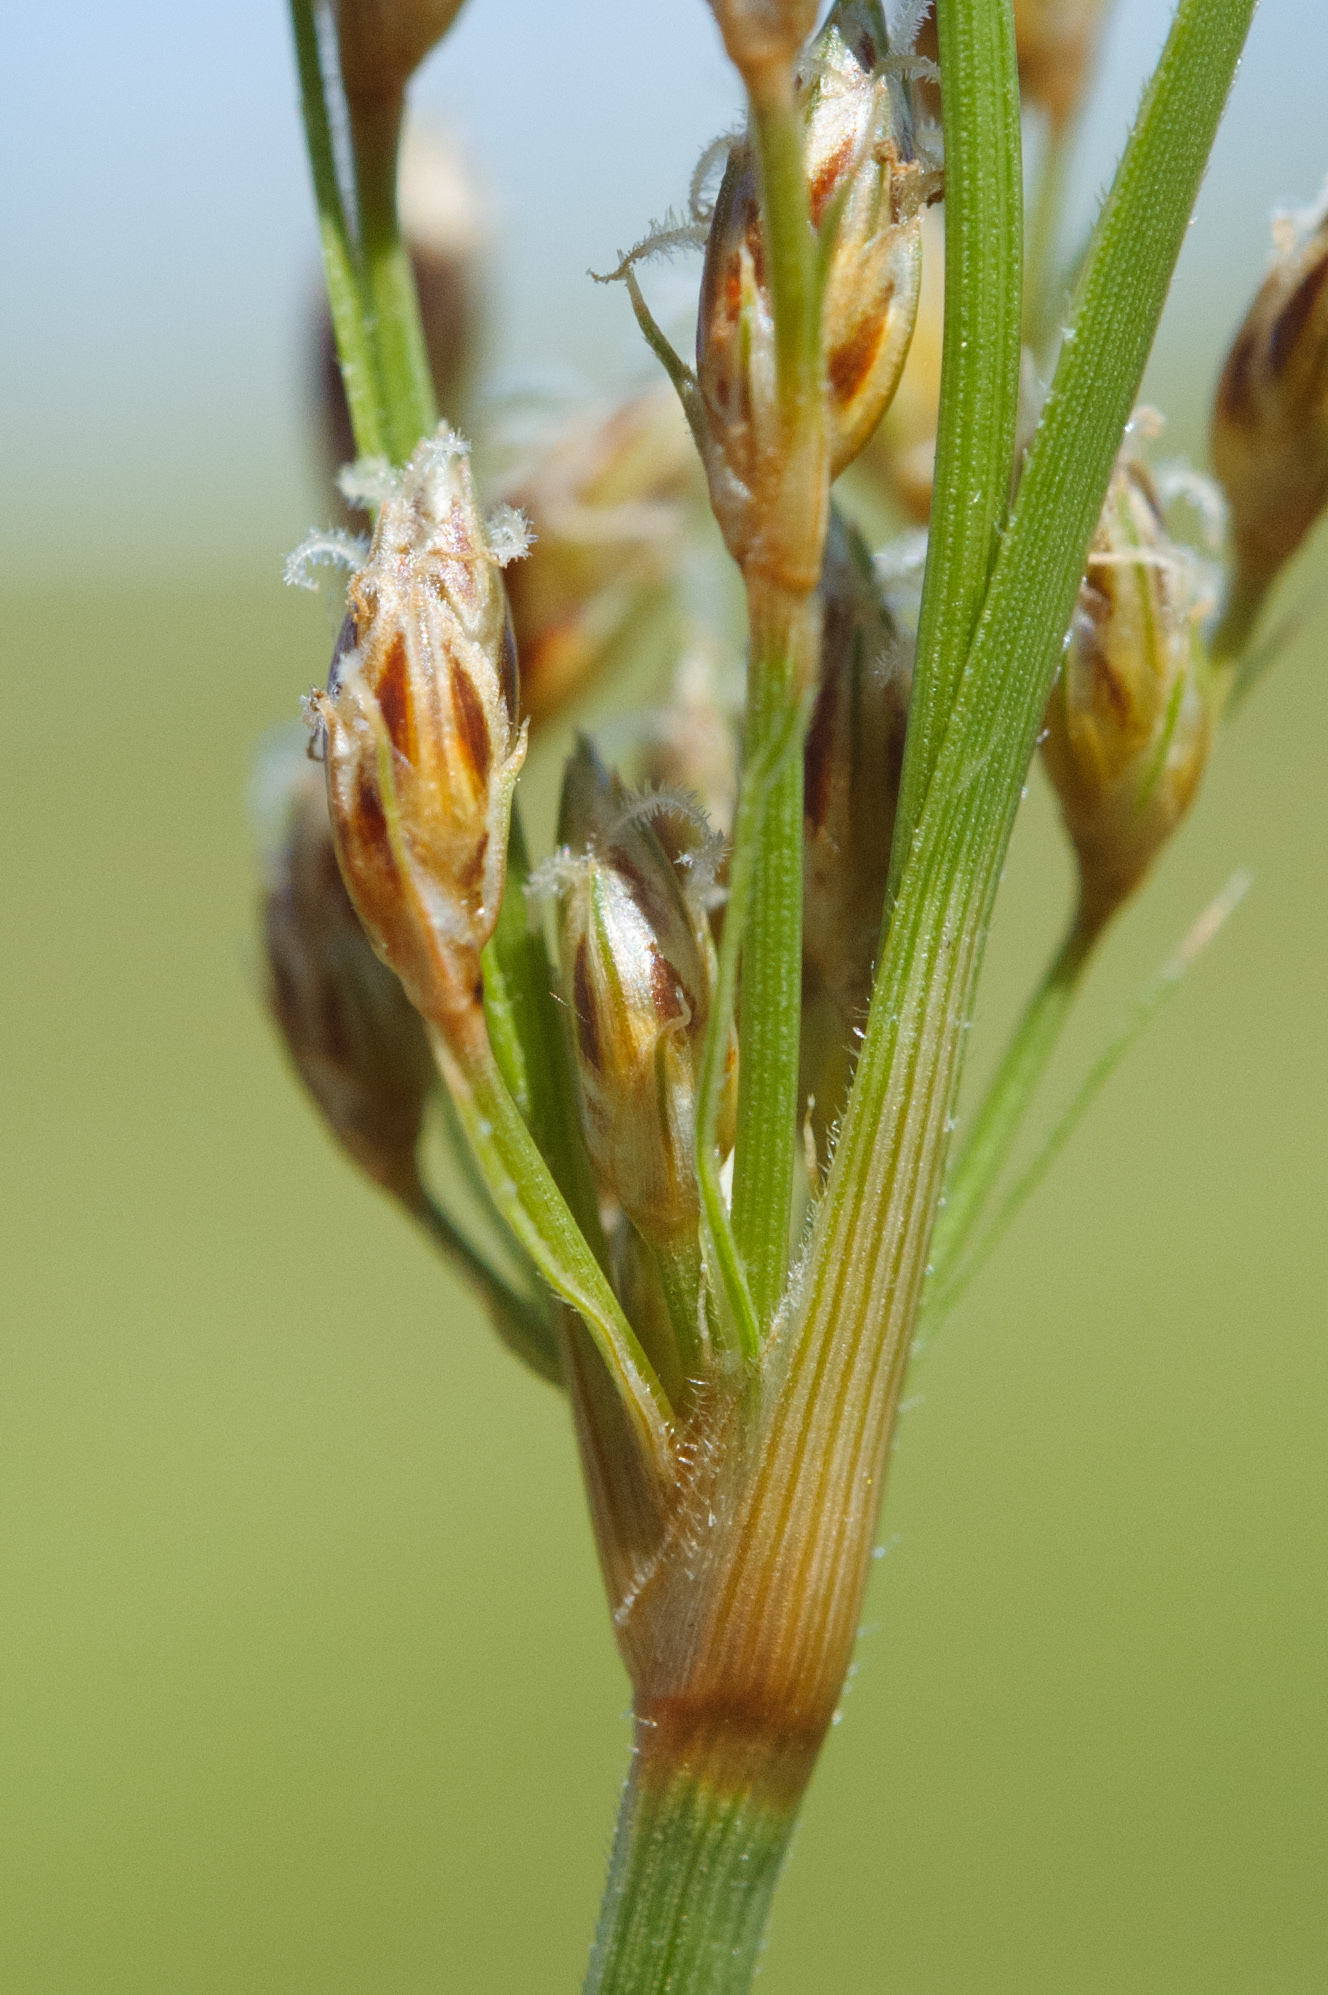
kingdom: Plantae
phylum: Tracheophyta
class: Liliopsida
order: Poales
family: Cyperaceae
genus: Fimbristylis
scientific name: Fimbristylis dichotoma
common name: Forked fimbry
